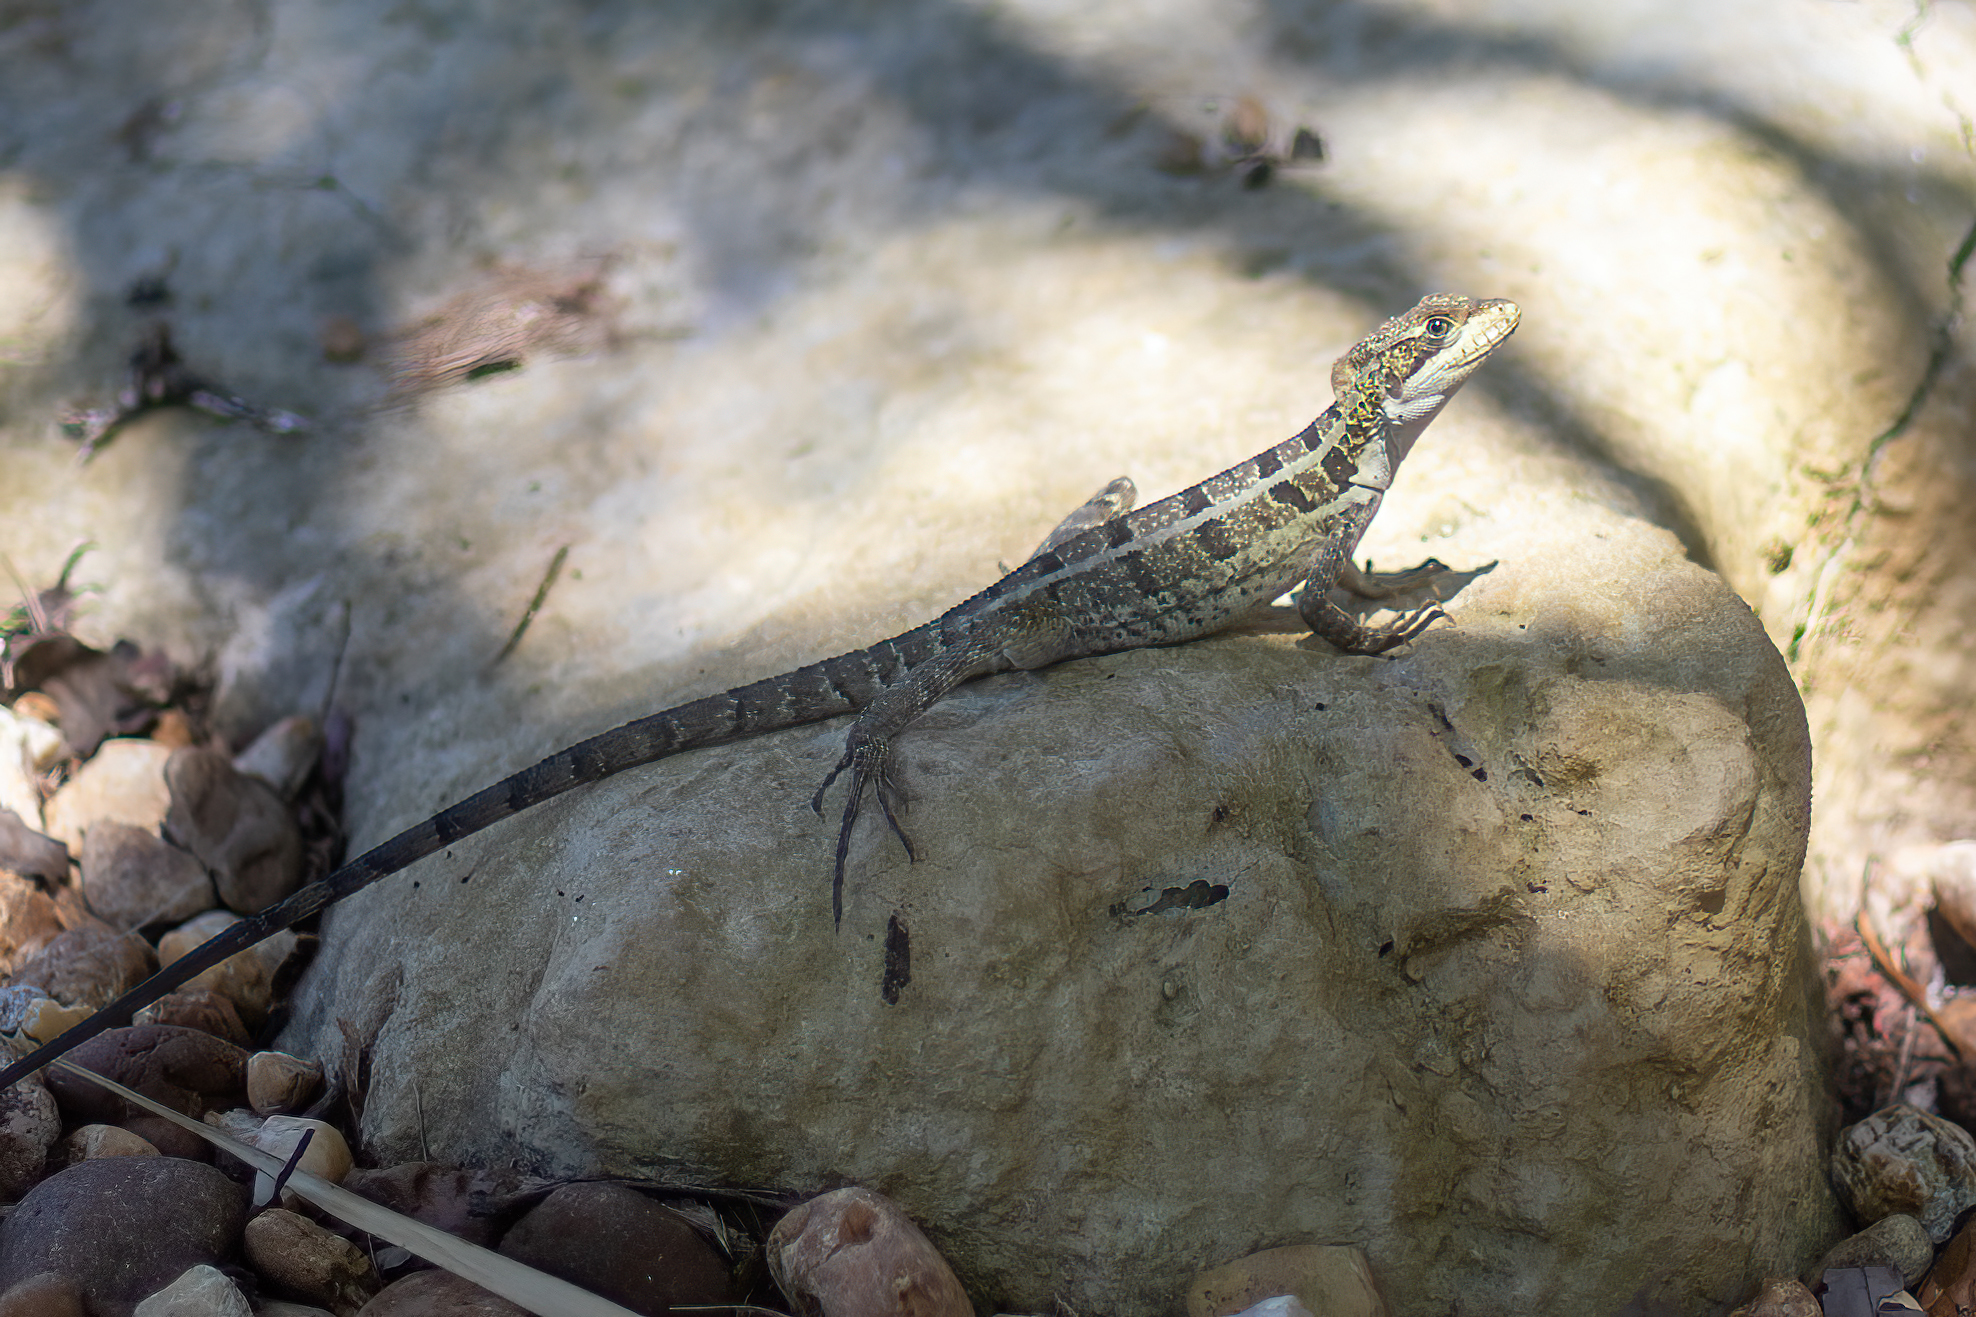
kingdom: Animalia
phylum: Chordata
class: Squamata
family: Corytophanidae
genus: Basiliscus
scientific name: Basiliscus vittatus
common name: Brown basilisk
